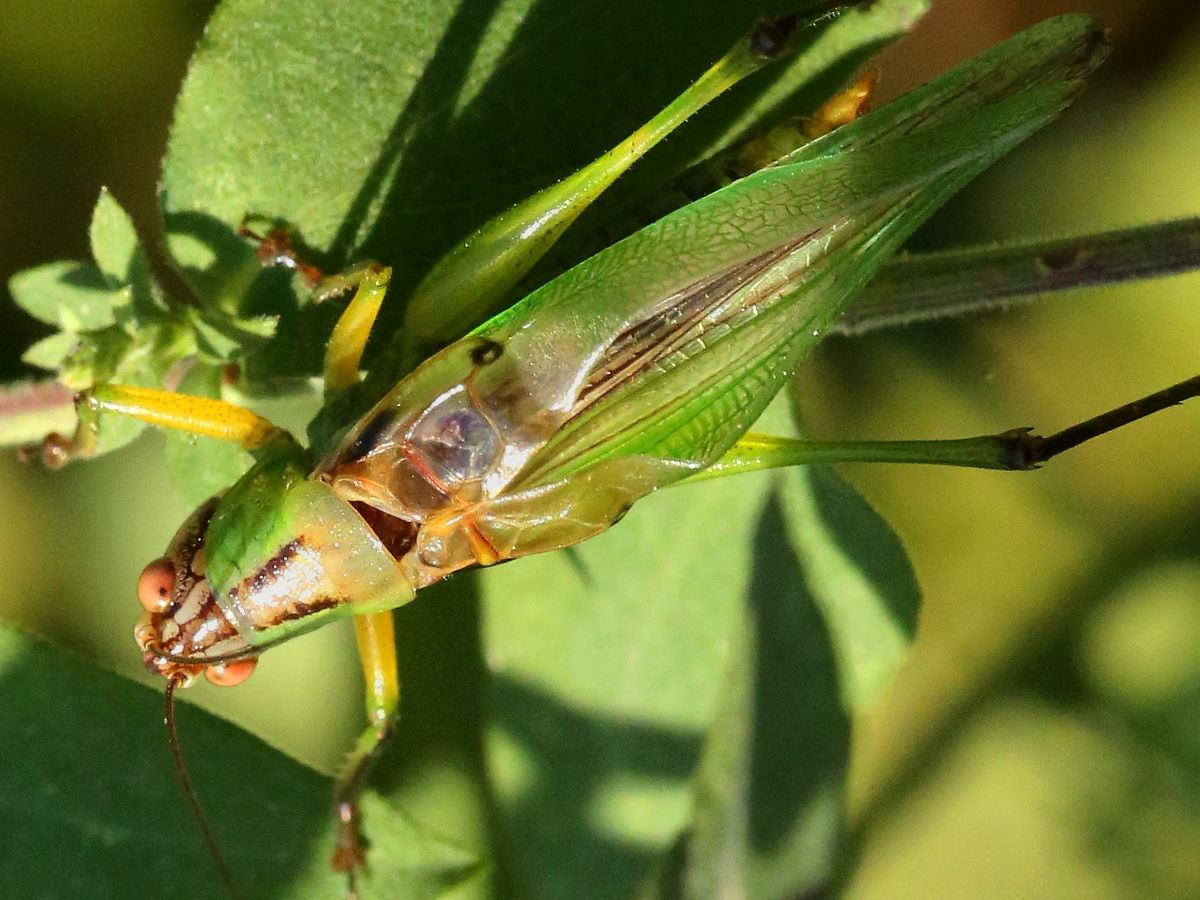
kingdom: Animalia
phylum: Arthropoda
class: Insecta
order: Orthoptera
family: Tettigoniidae
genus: Orchelimum
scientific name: Orchelimum nigripes
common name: Black-legged meadow katydid
